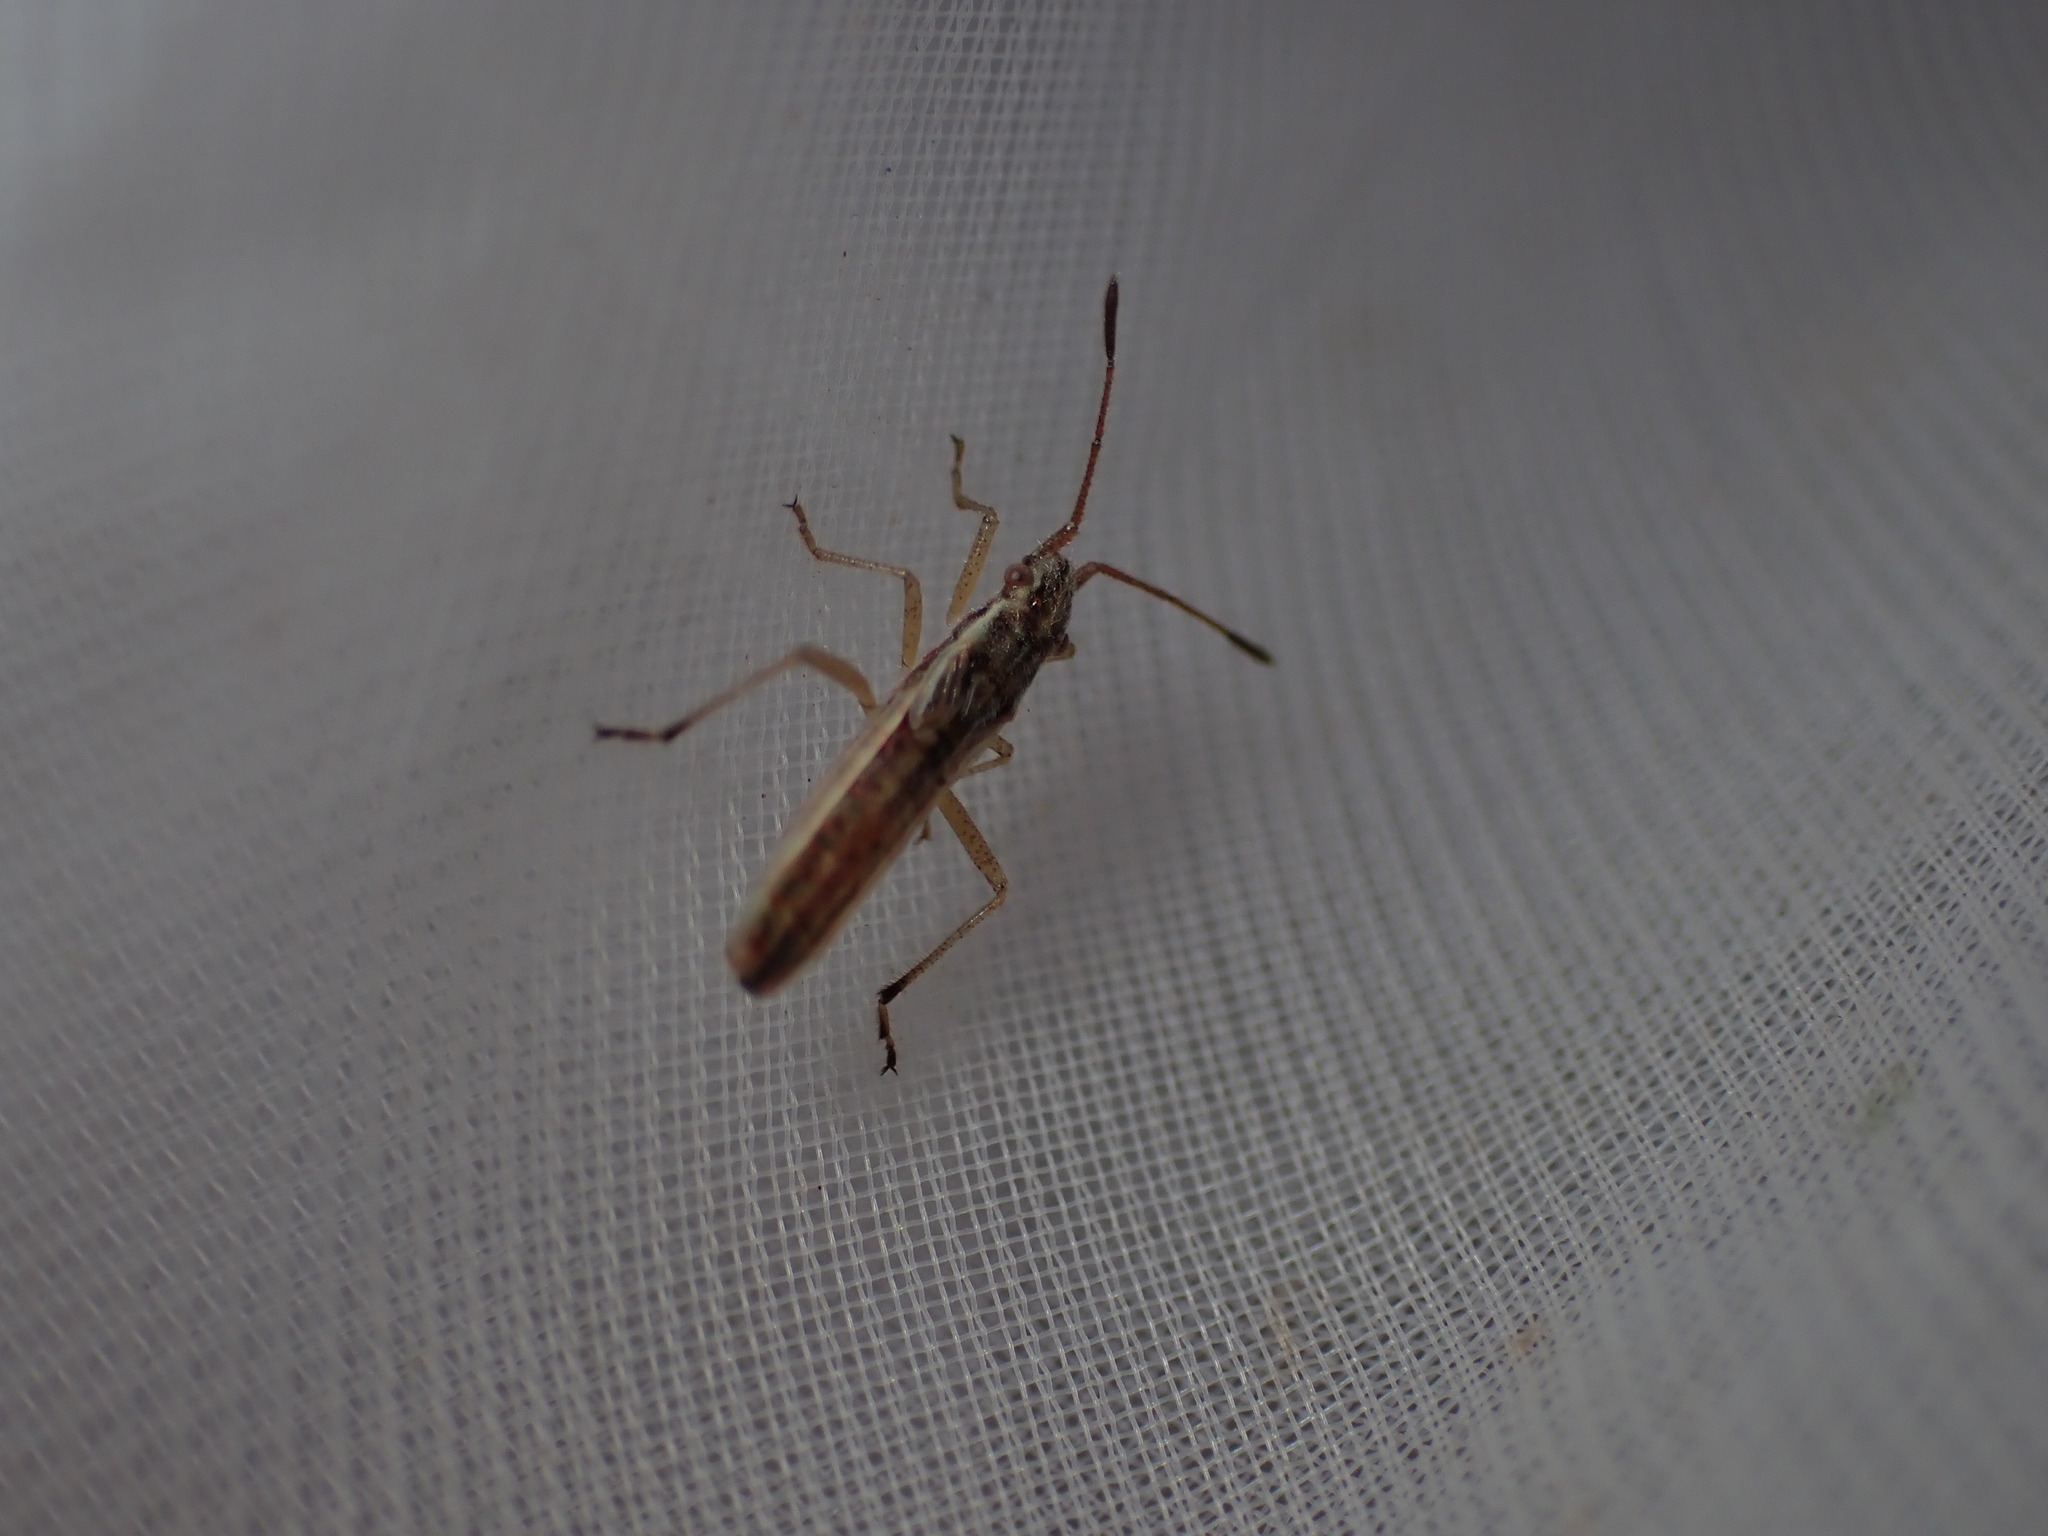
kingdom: Animalia
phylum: Arthropoda
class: Insecta
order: Hemiptera
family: Rhopalidae
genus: Myrmus
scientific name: Myrmus miriformis
